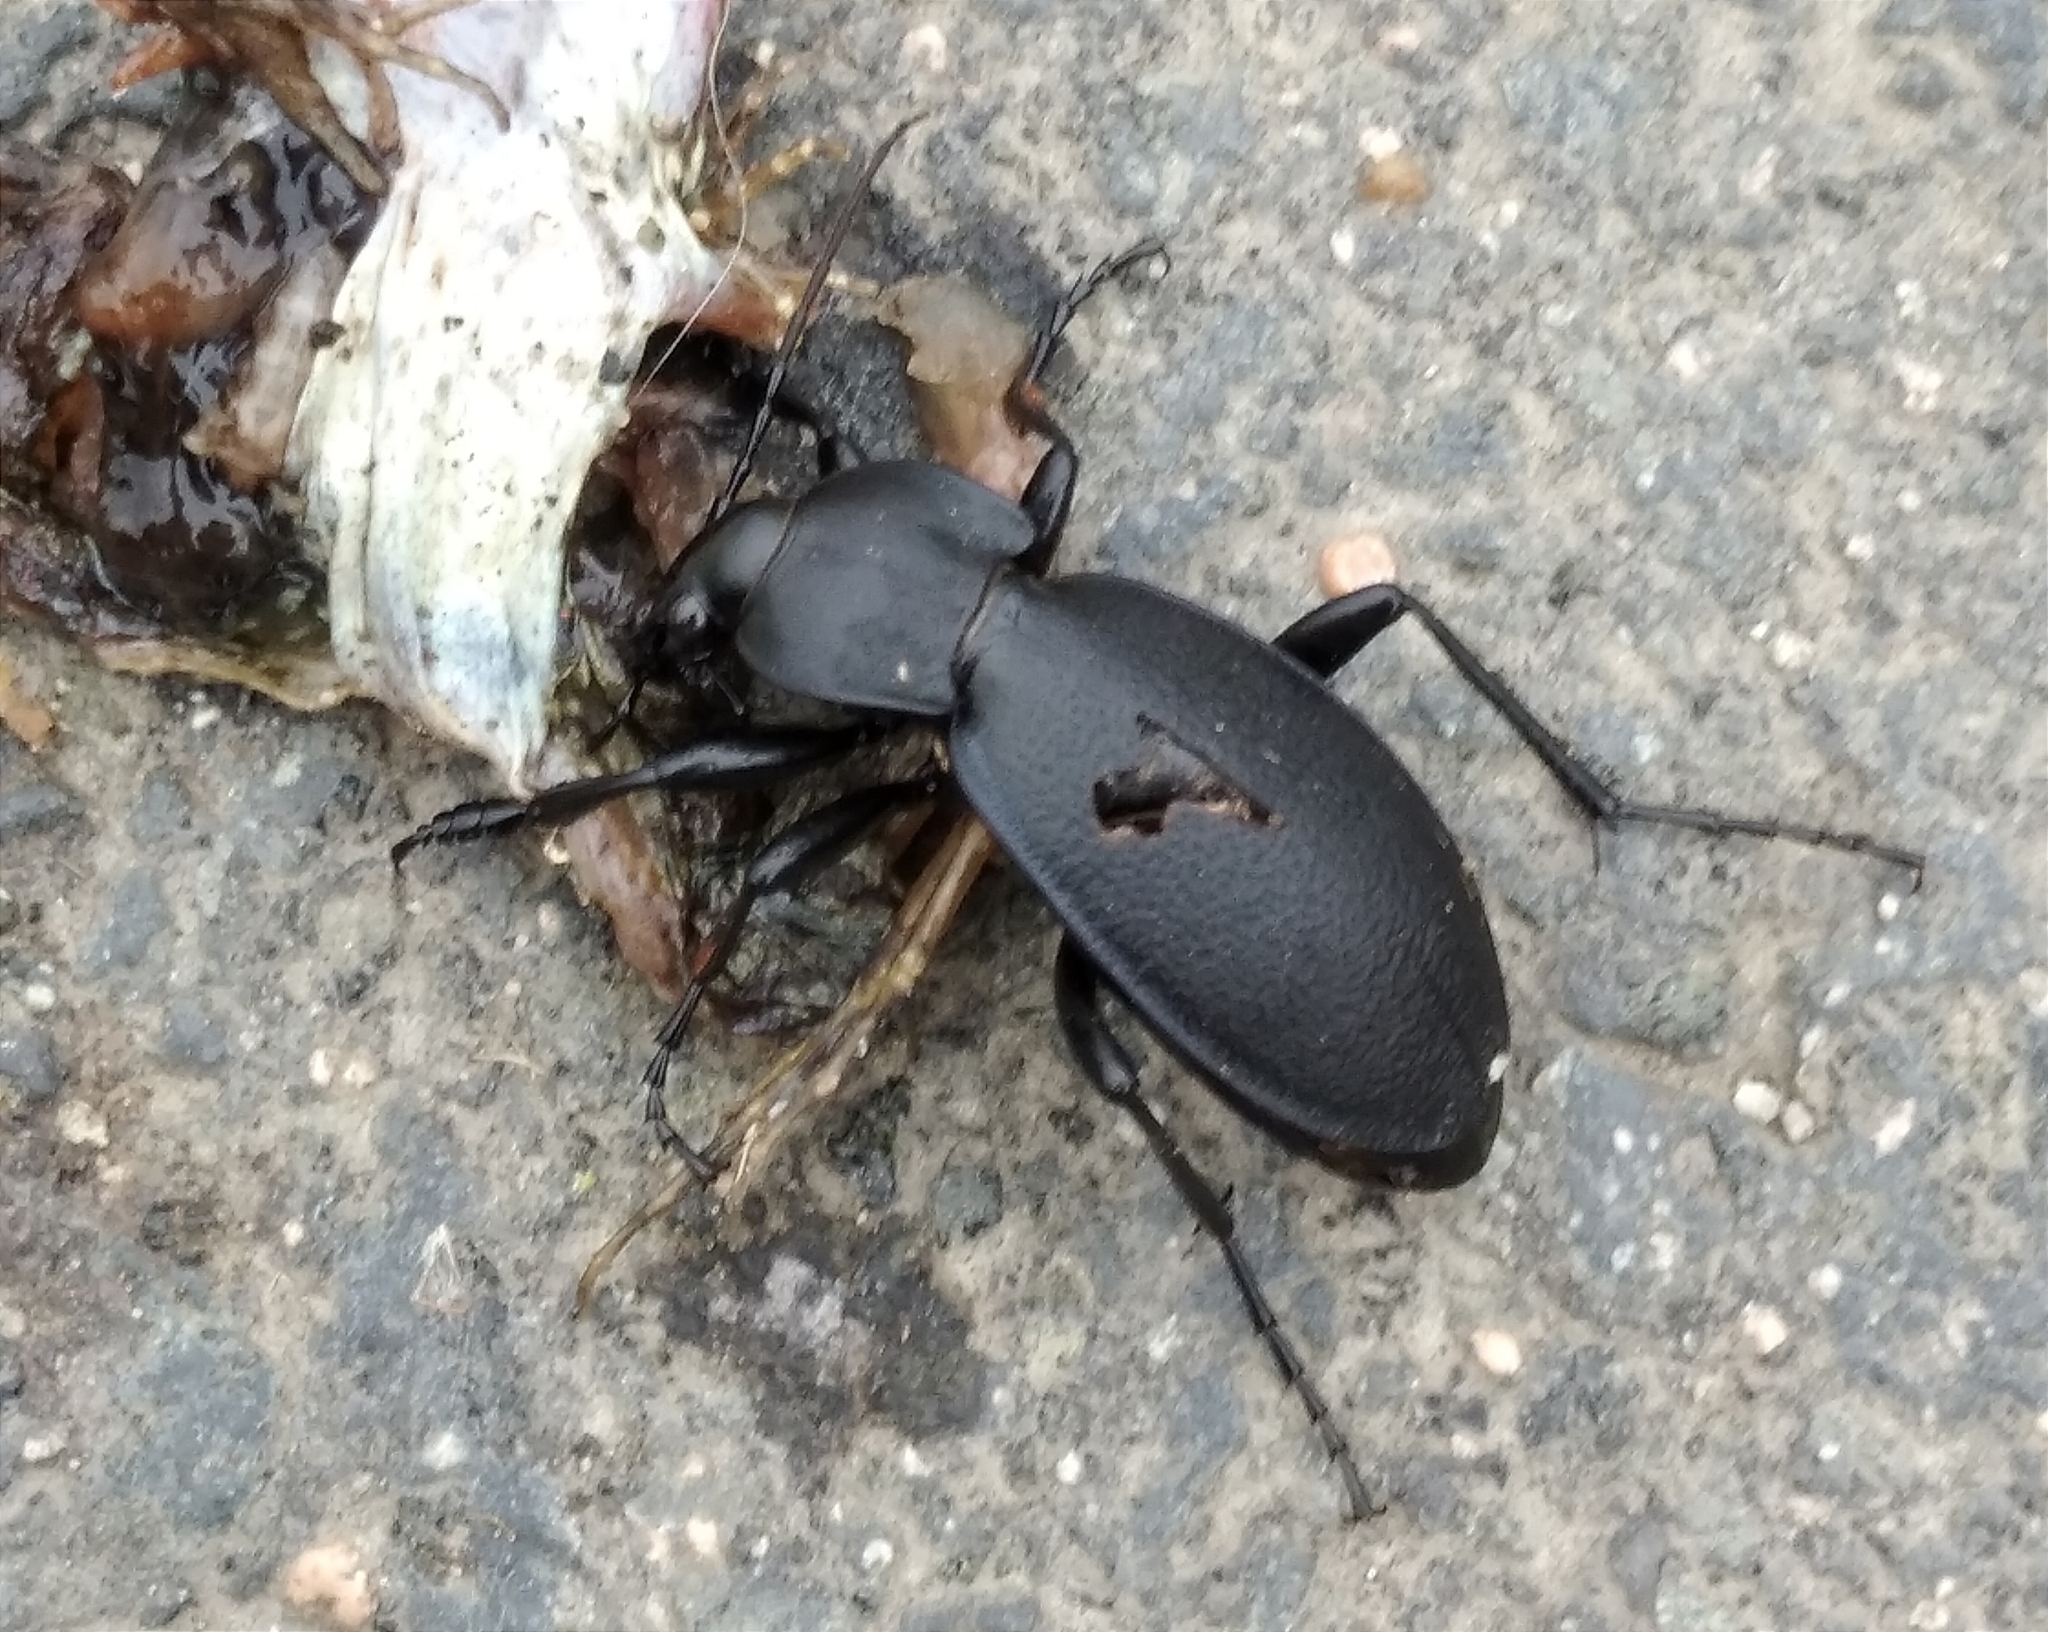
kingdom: Animalia
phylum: Arthropoda
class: Insecta
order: Coleoptera
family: Carabidae
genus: Carabus
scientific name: Carabus coriaceus
